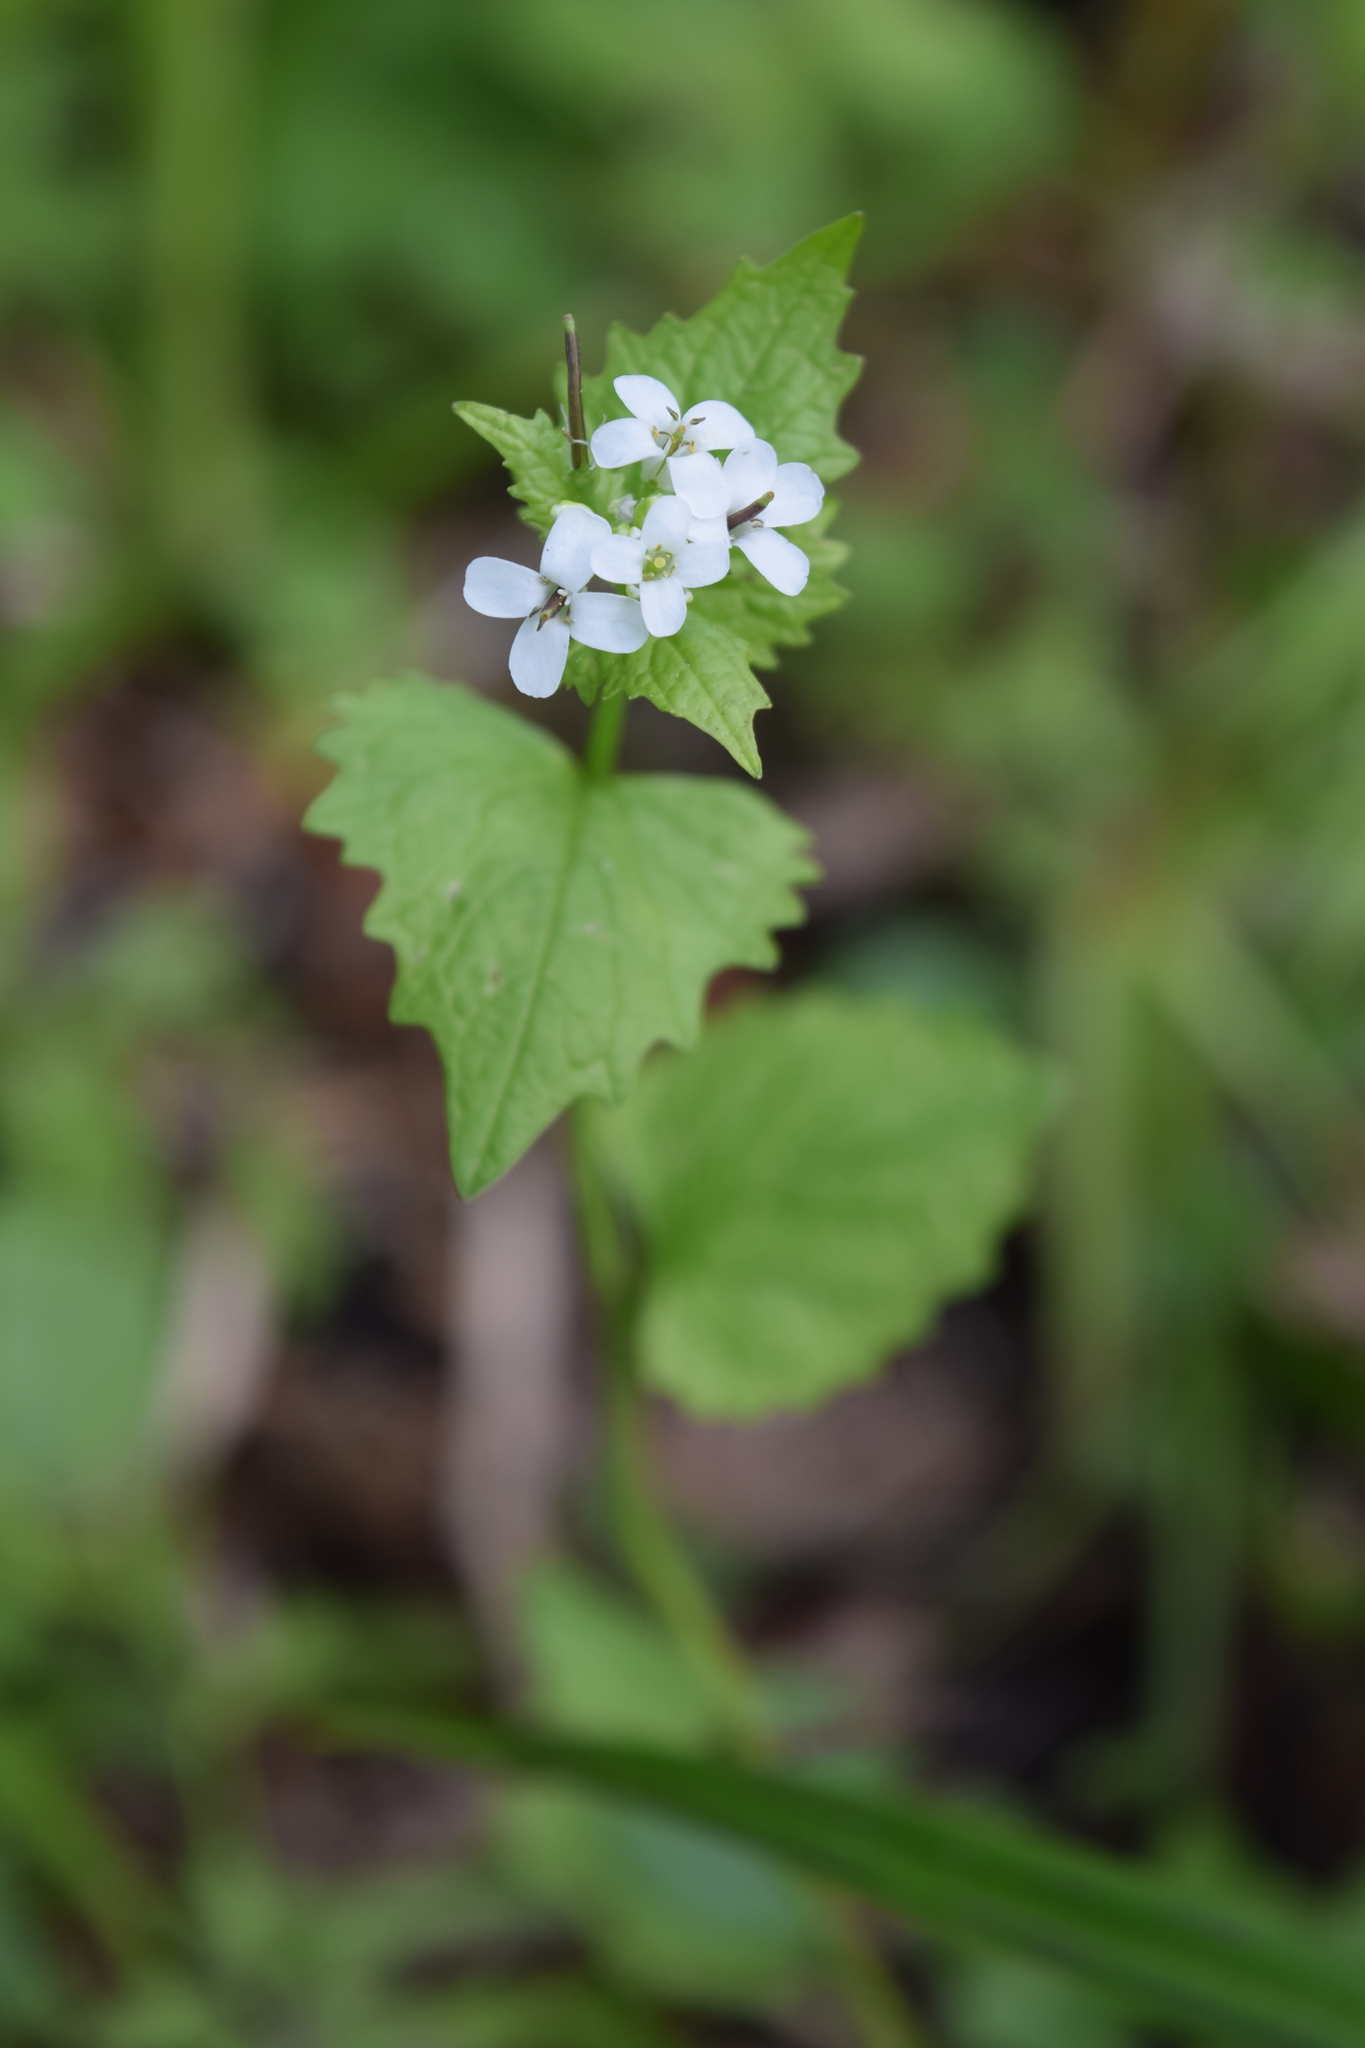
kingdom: Plantae
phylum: Tracheophyta
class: Magnoliopsida
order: Brassicales
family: Brassicaceae
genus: Alliaria
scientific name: Alliaria petiolata
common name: Garlic mustard
